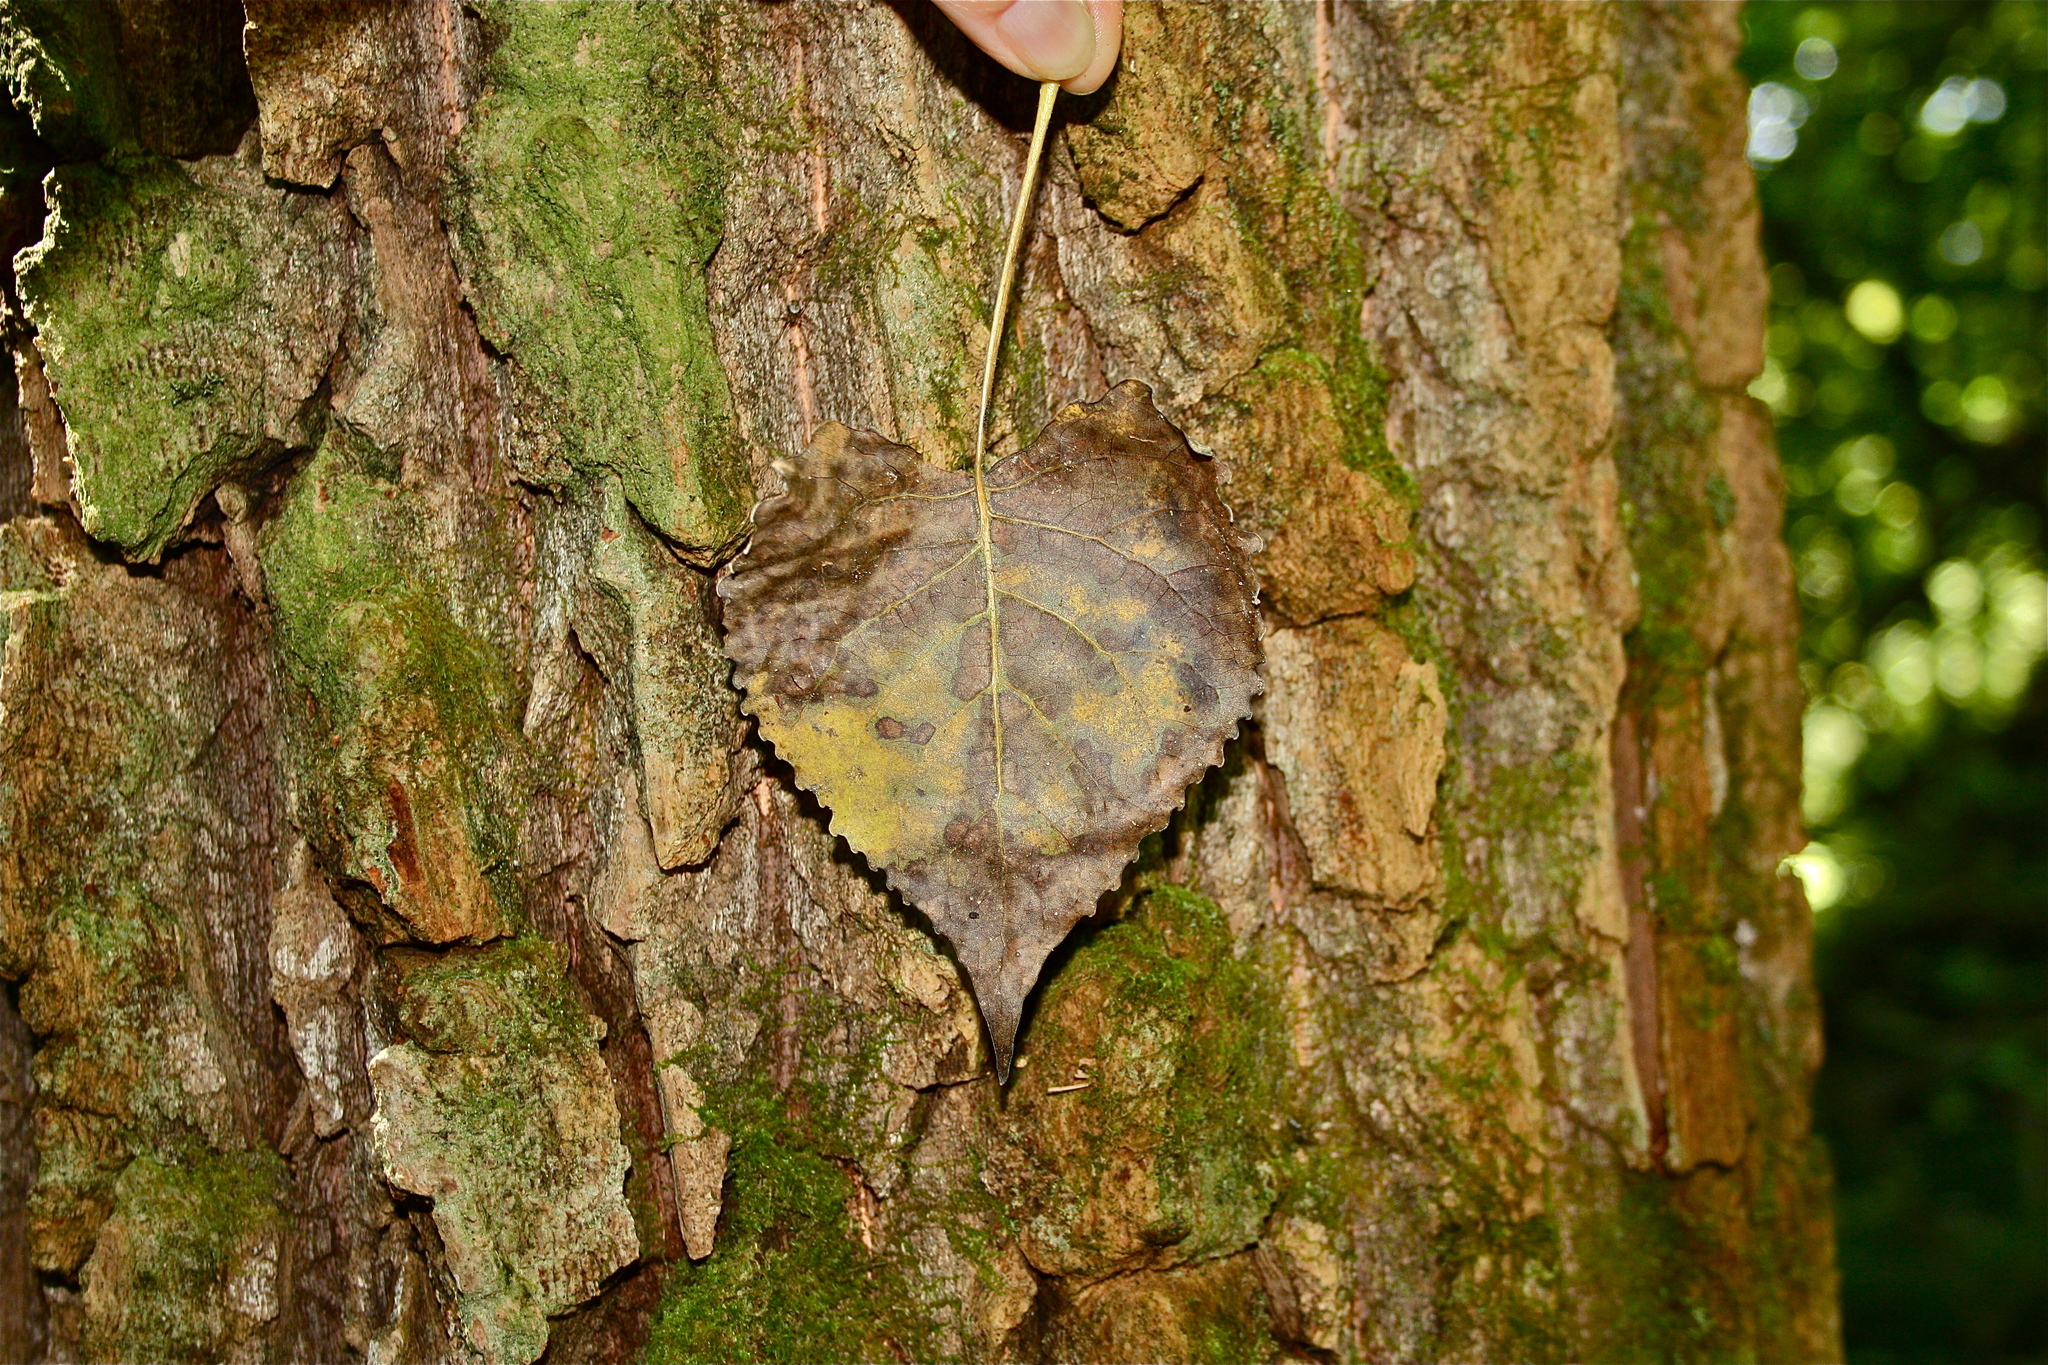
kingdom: Plantae
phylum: Tracheophyta
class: Magnoliopsida
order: Malpighiales
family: Salicaceae
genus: Populus
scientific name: Populus deltoides
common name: Eastern cottonwood
